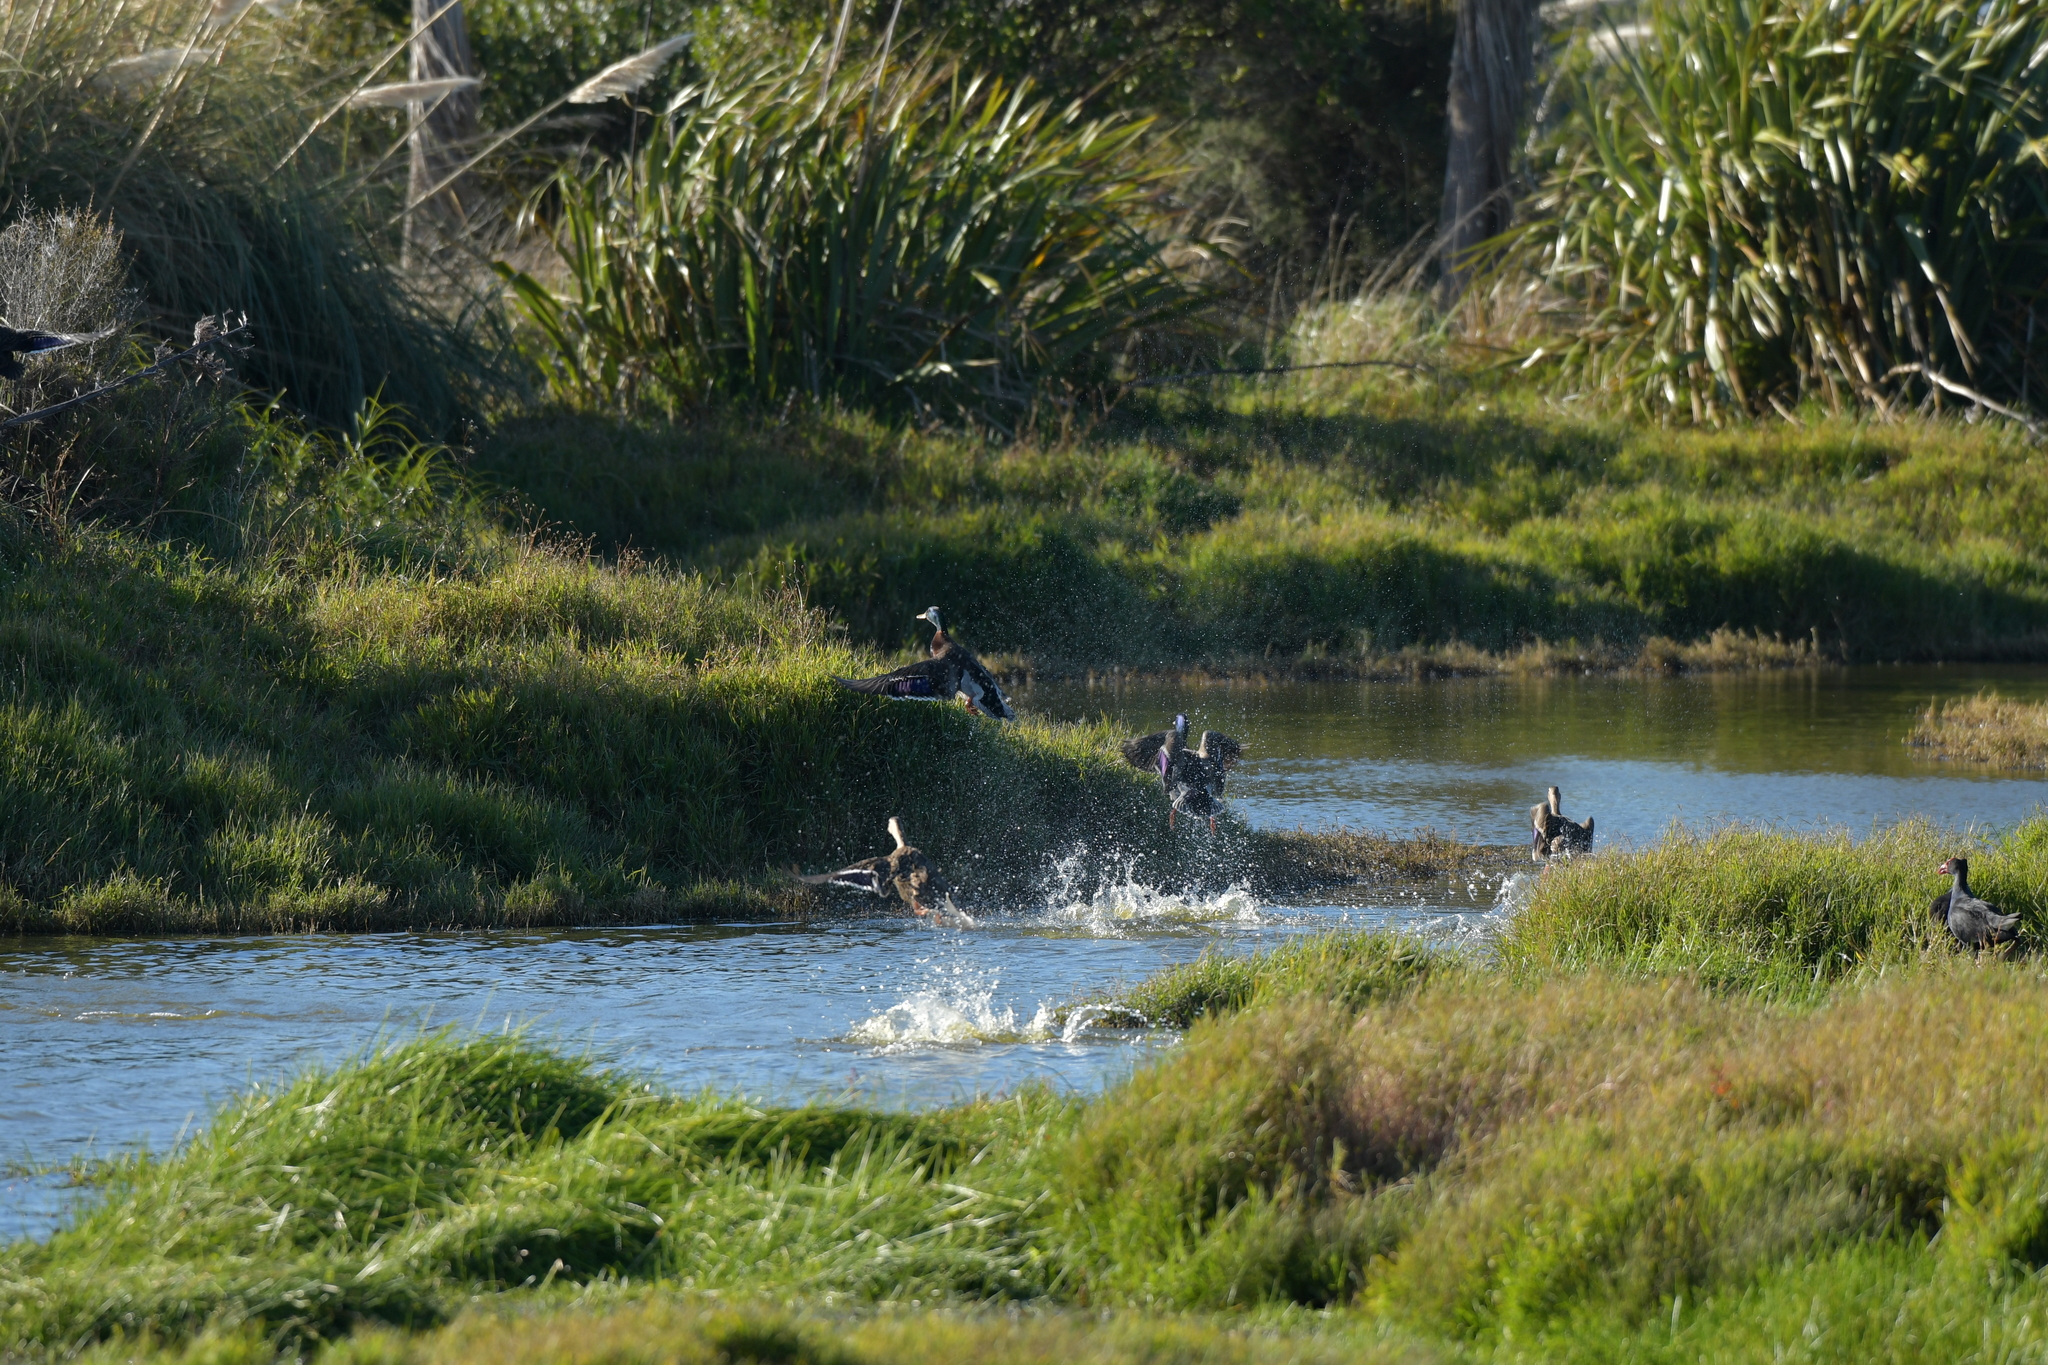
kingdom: Animalia
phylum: Chordata
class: Aves
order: Anseriformes
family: Anatidae
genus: Anas
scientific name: Anas platyrhynchos
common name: Mallard
